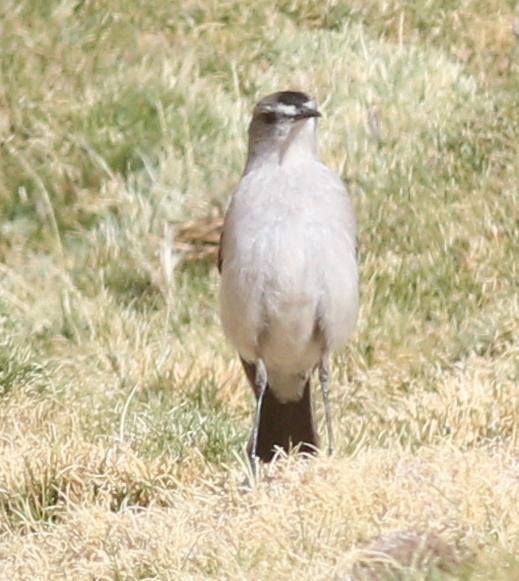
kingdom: Animalia
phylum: Chordata
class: Aves
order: Passeriformes
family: Tyrannidae
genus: Muscisaxicola
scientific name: Muscisaxicola frontalis
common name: Black-fronted ground tyrant
